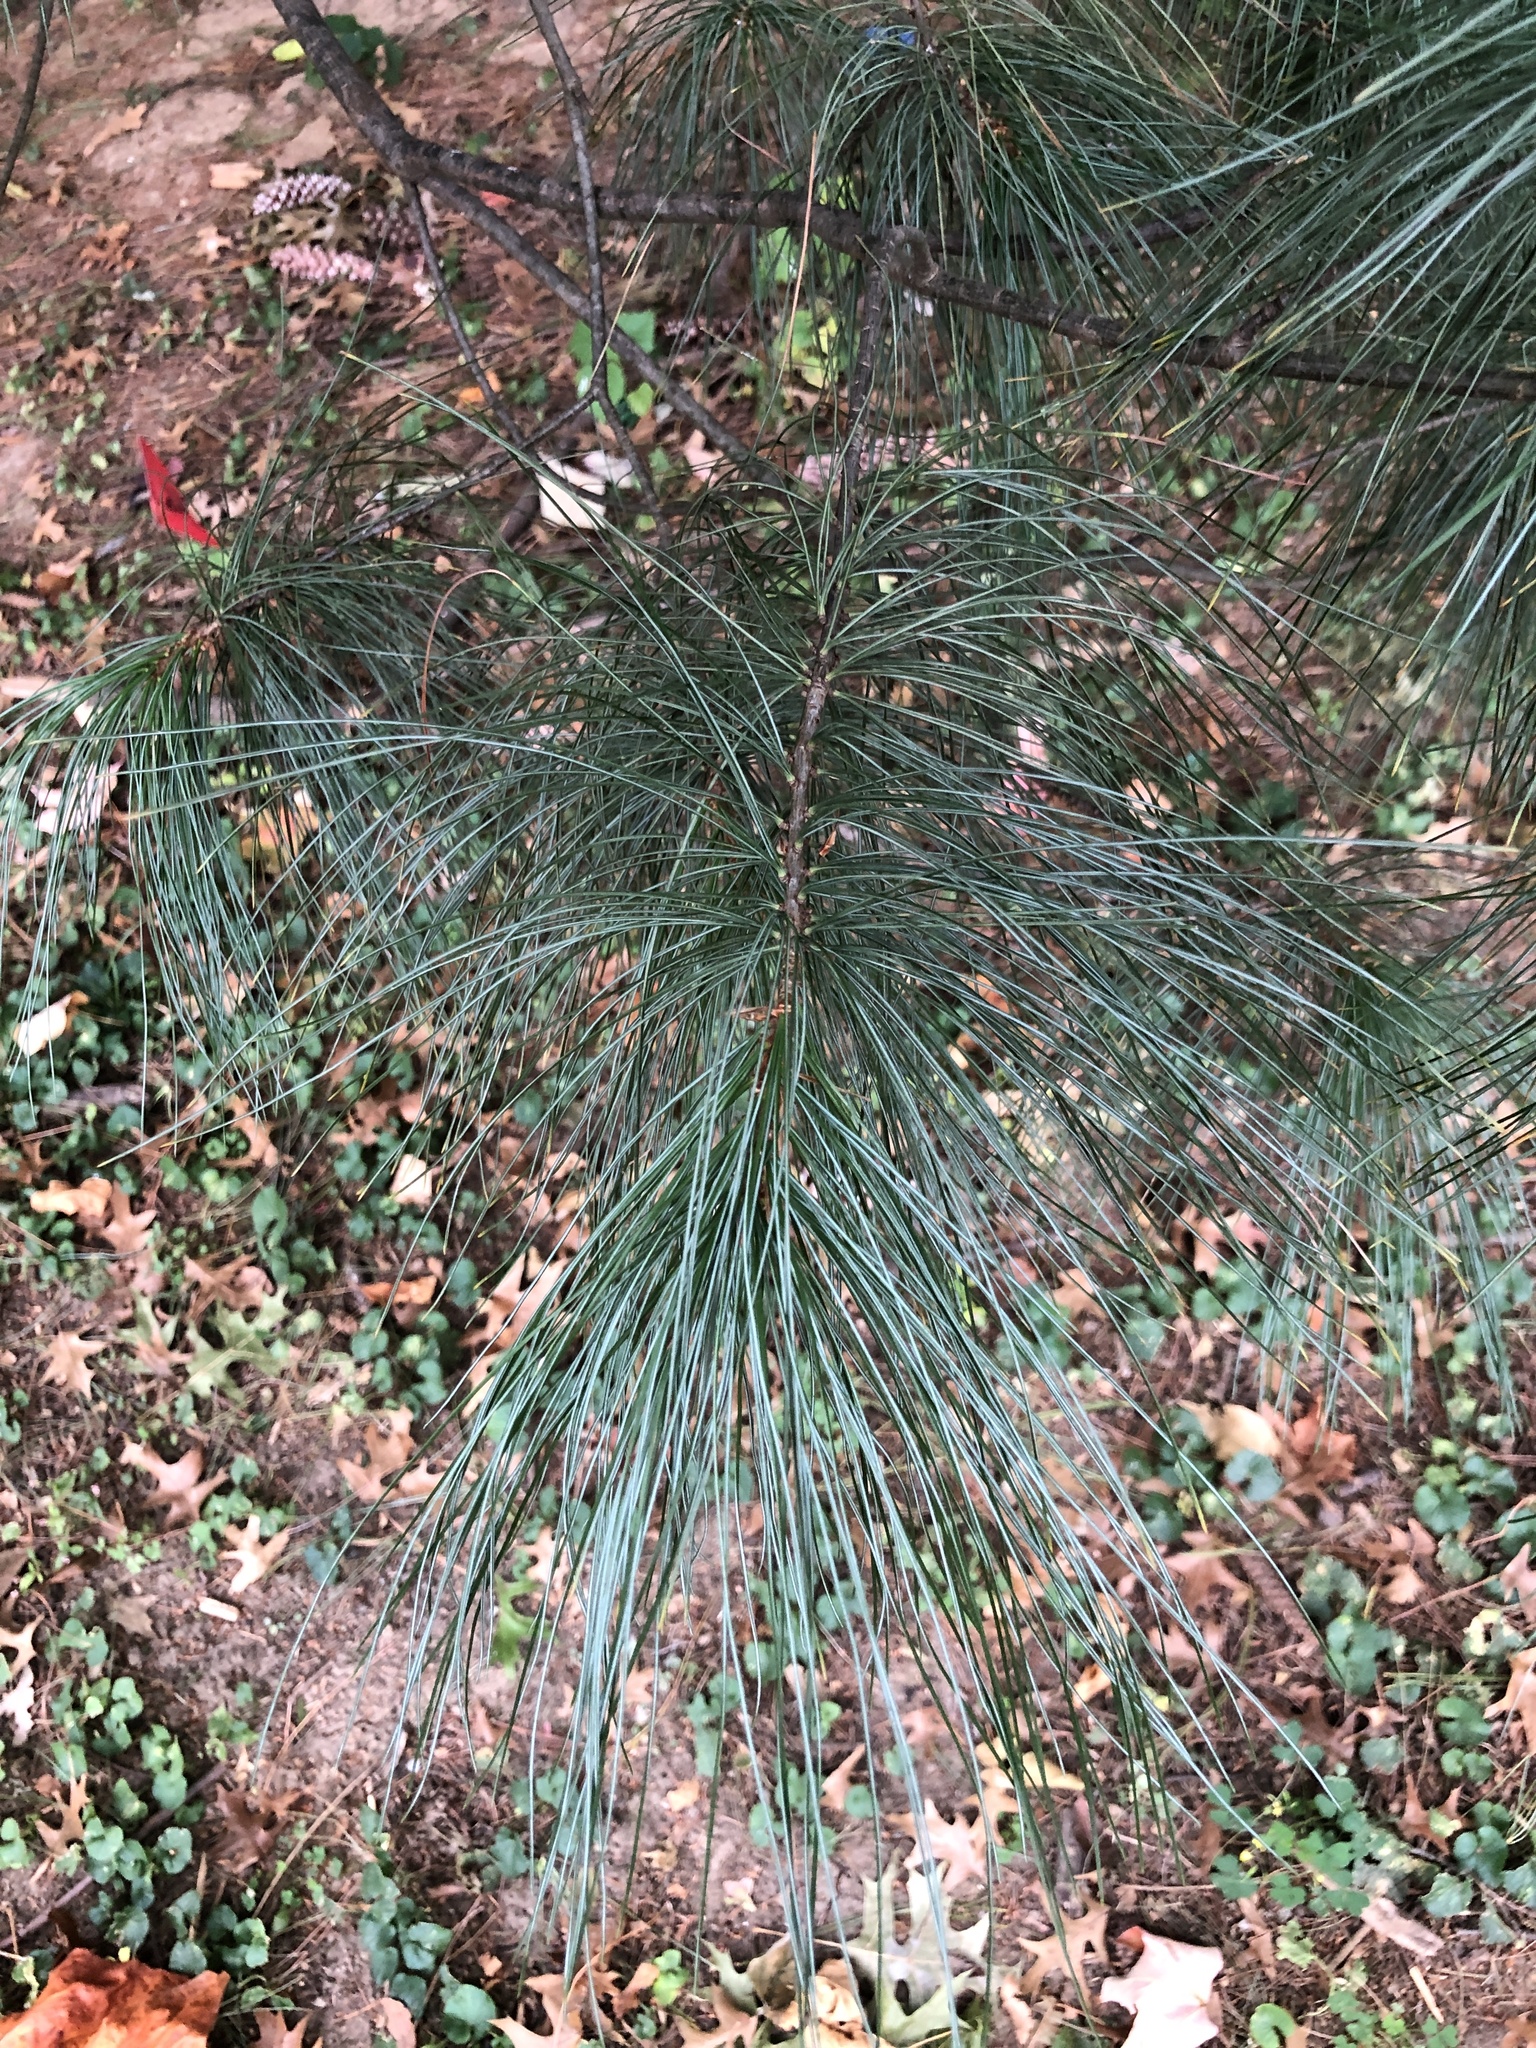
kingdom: Plantae
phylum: Tracheophyta
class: Pinopsida
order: Pinales
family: Pinaceae
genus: Pinus
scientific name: Pinus strobus
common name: Weymouth pine
